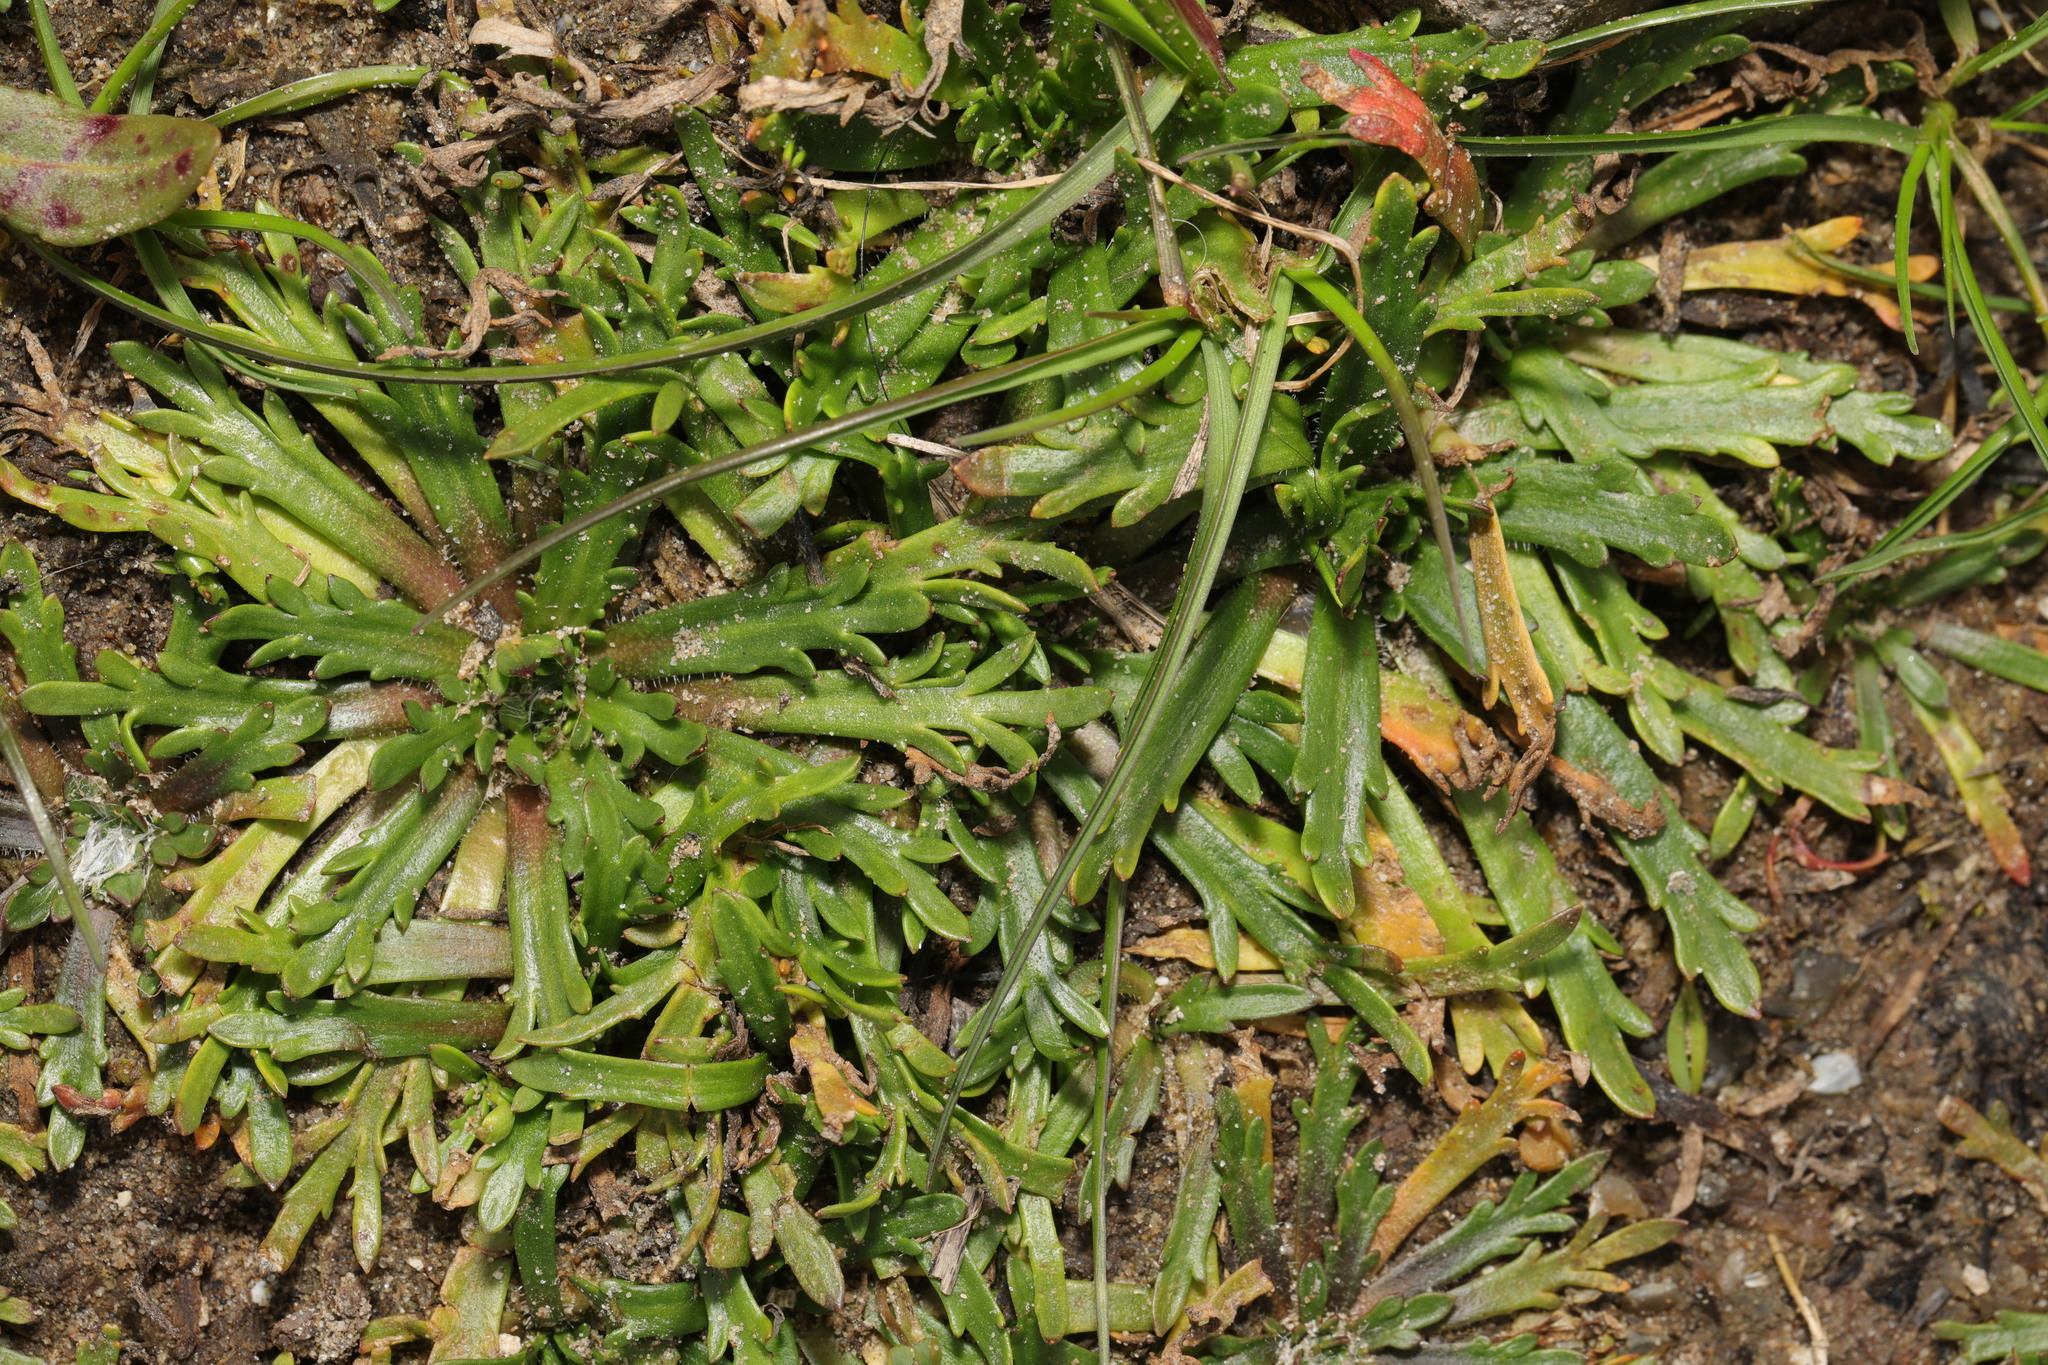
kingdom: Plantae
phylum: Tracheophyta
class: Magnoliopsida
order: Lamiales
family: Plantaginaceae
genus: Plantago
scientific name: Plantago coronopus
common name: Buck's-horn plantain
